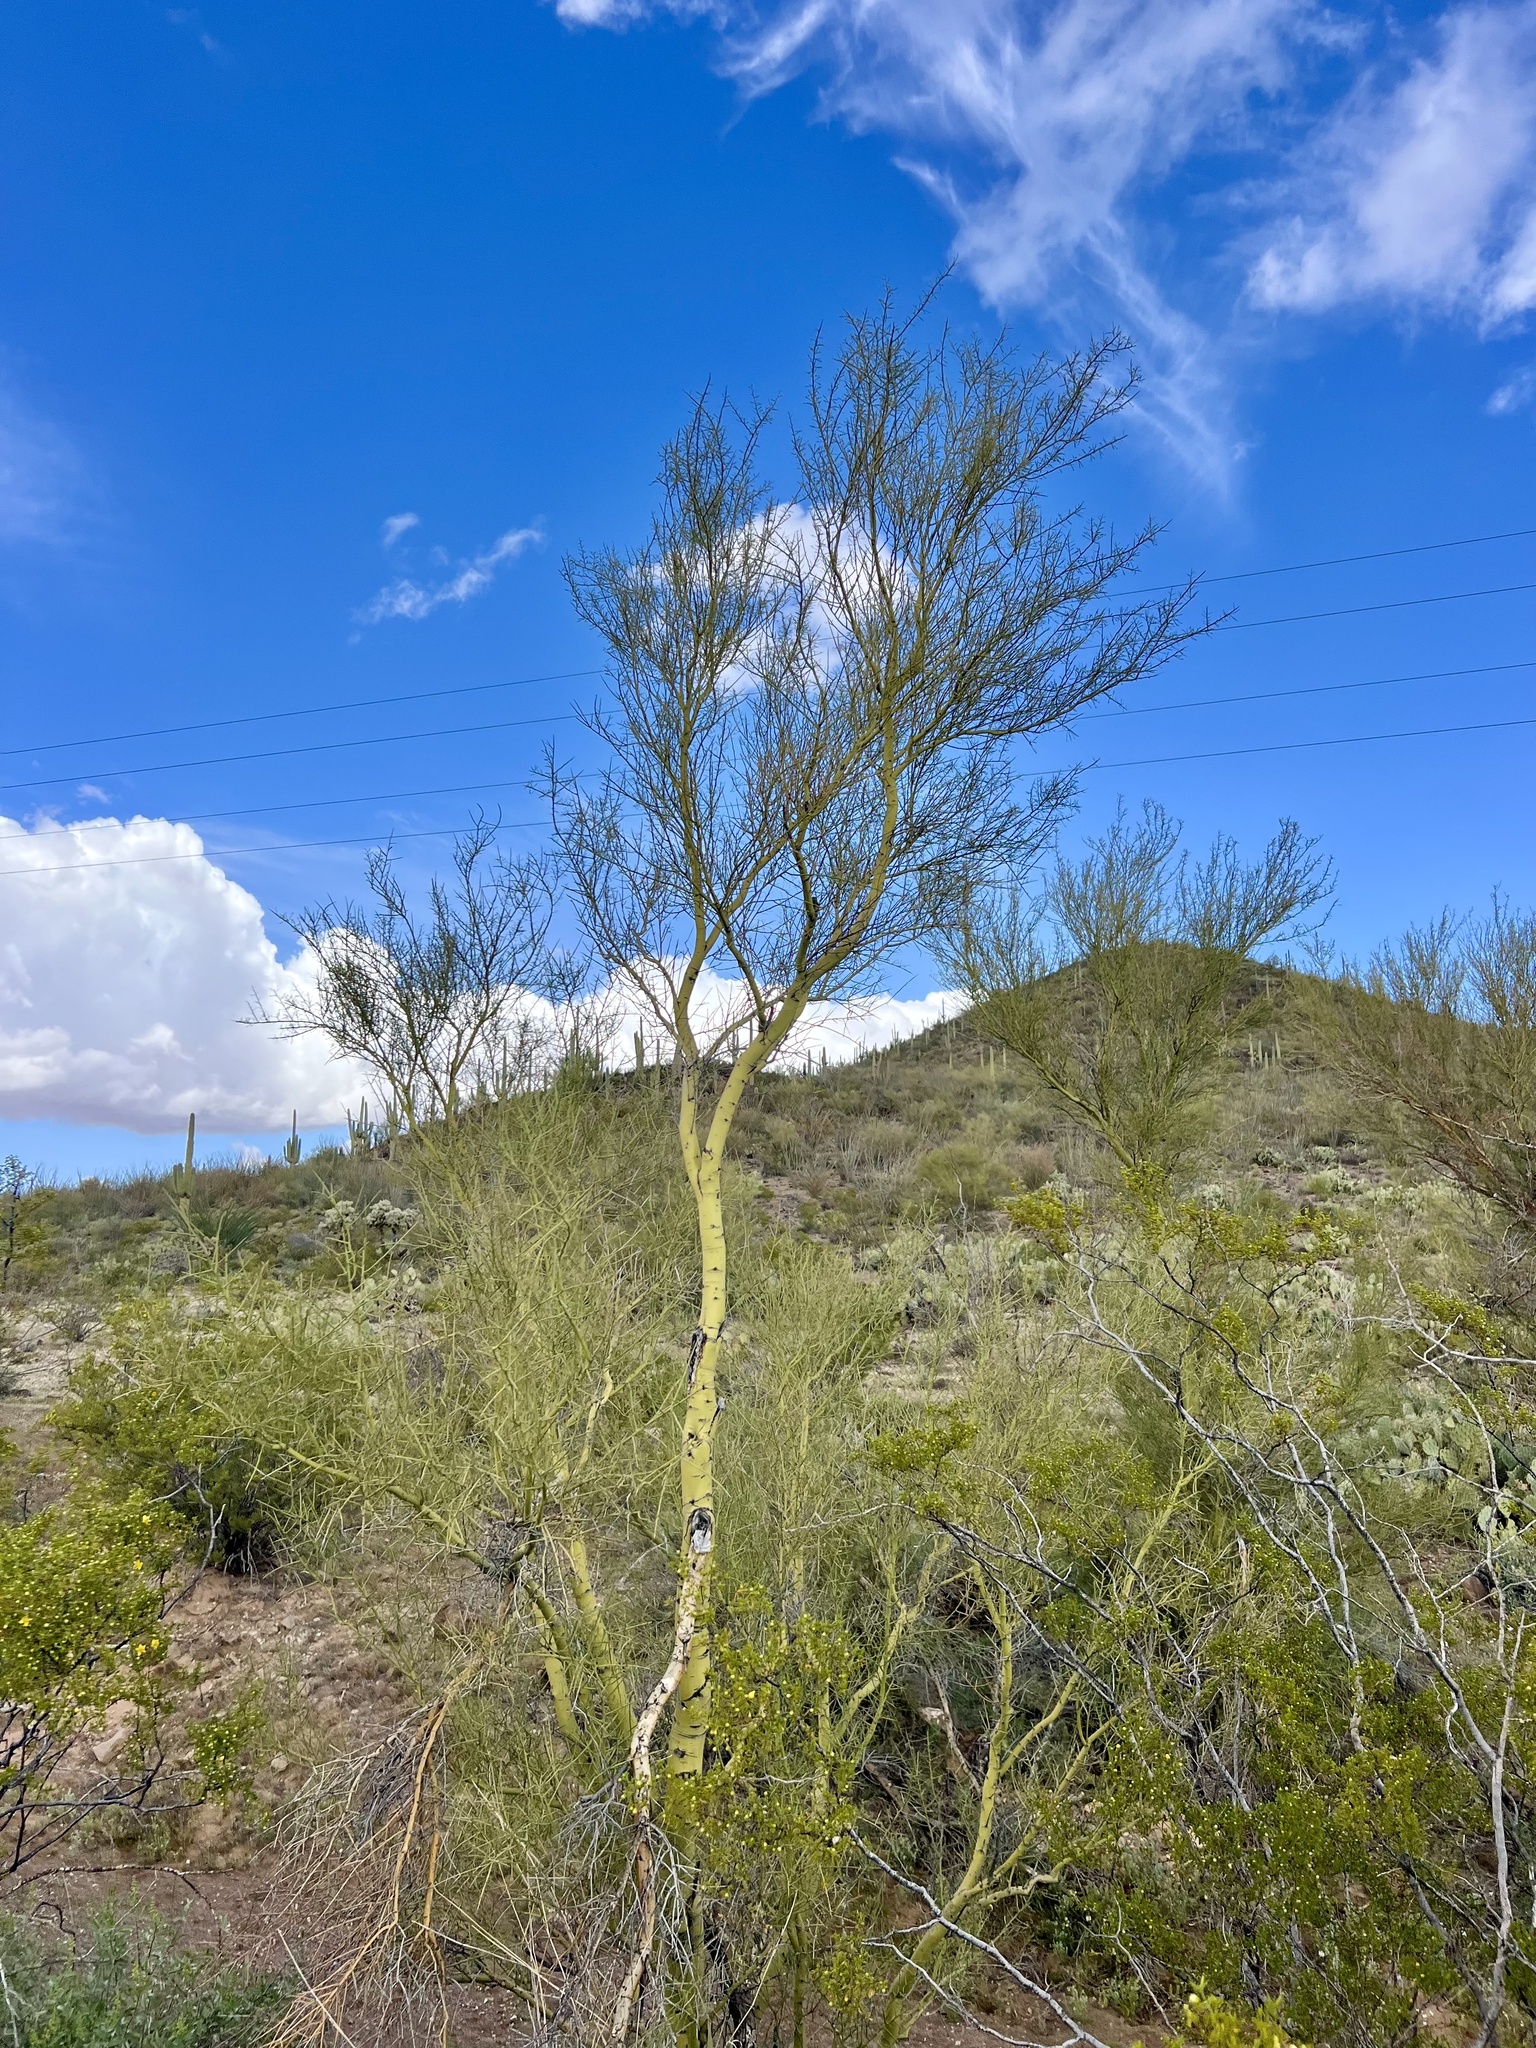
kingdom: Plantae
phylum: Tracheophyta
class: Magnoliopsida
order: Fabales
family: Fabaceae
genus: Parkinsonia
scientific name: Parkinsonia microphylla
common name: Yellow paloverde
